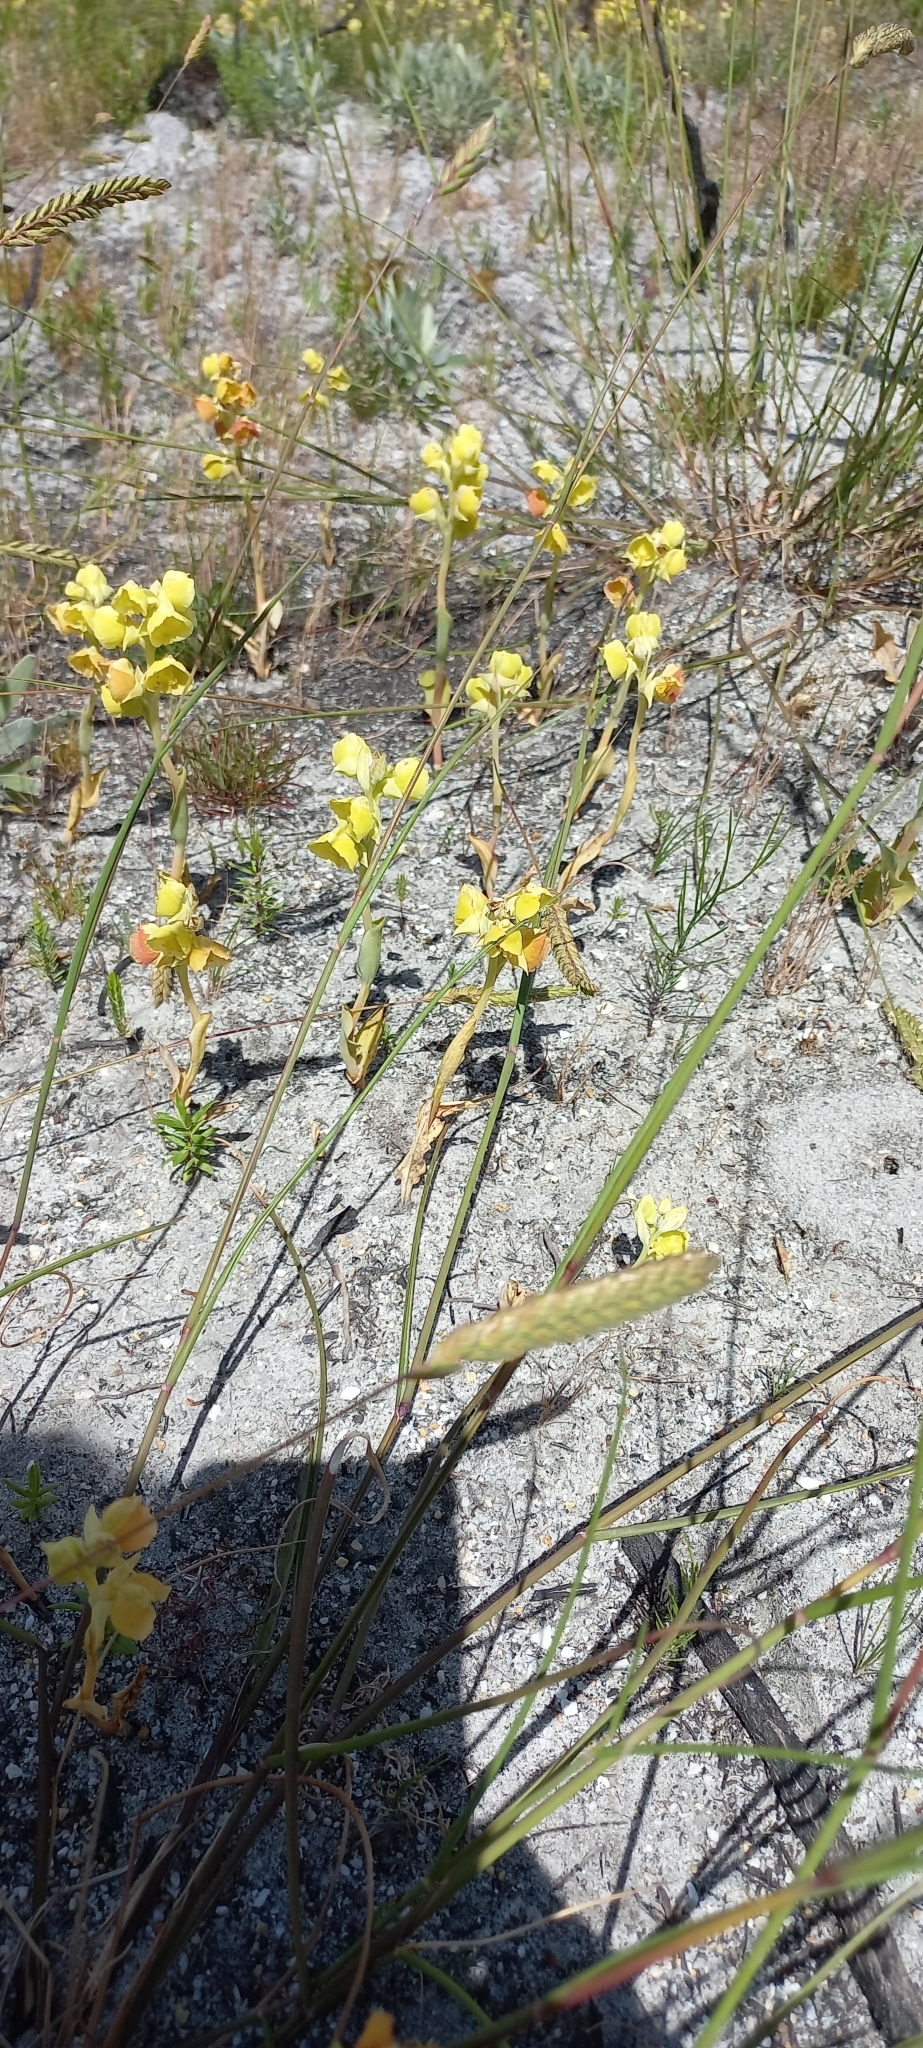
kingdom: Plantae
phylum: Tracheophyta
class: Liliopsida
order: Asparagales
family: Orchidaceae
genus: Pterygodium
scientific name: Pterygodium catholicum
